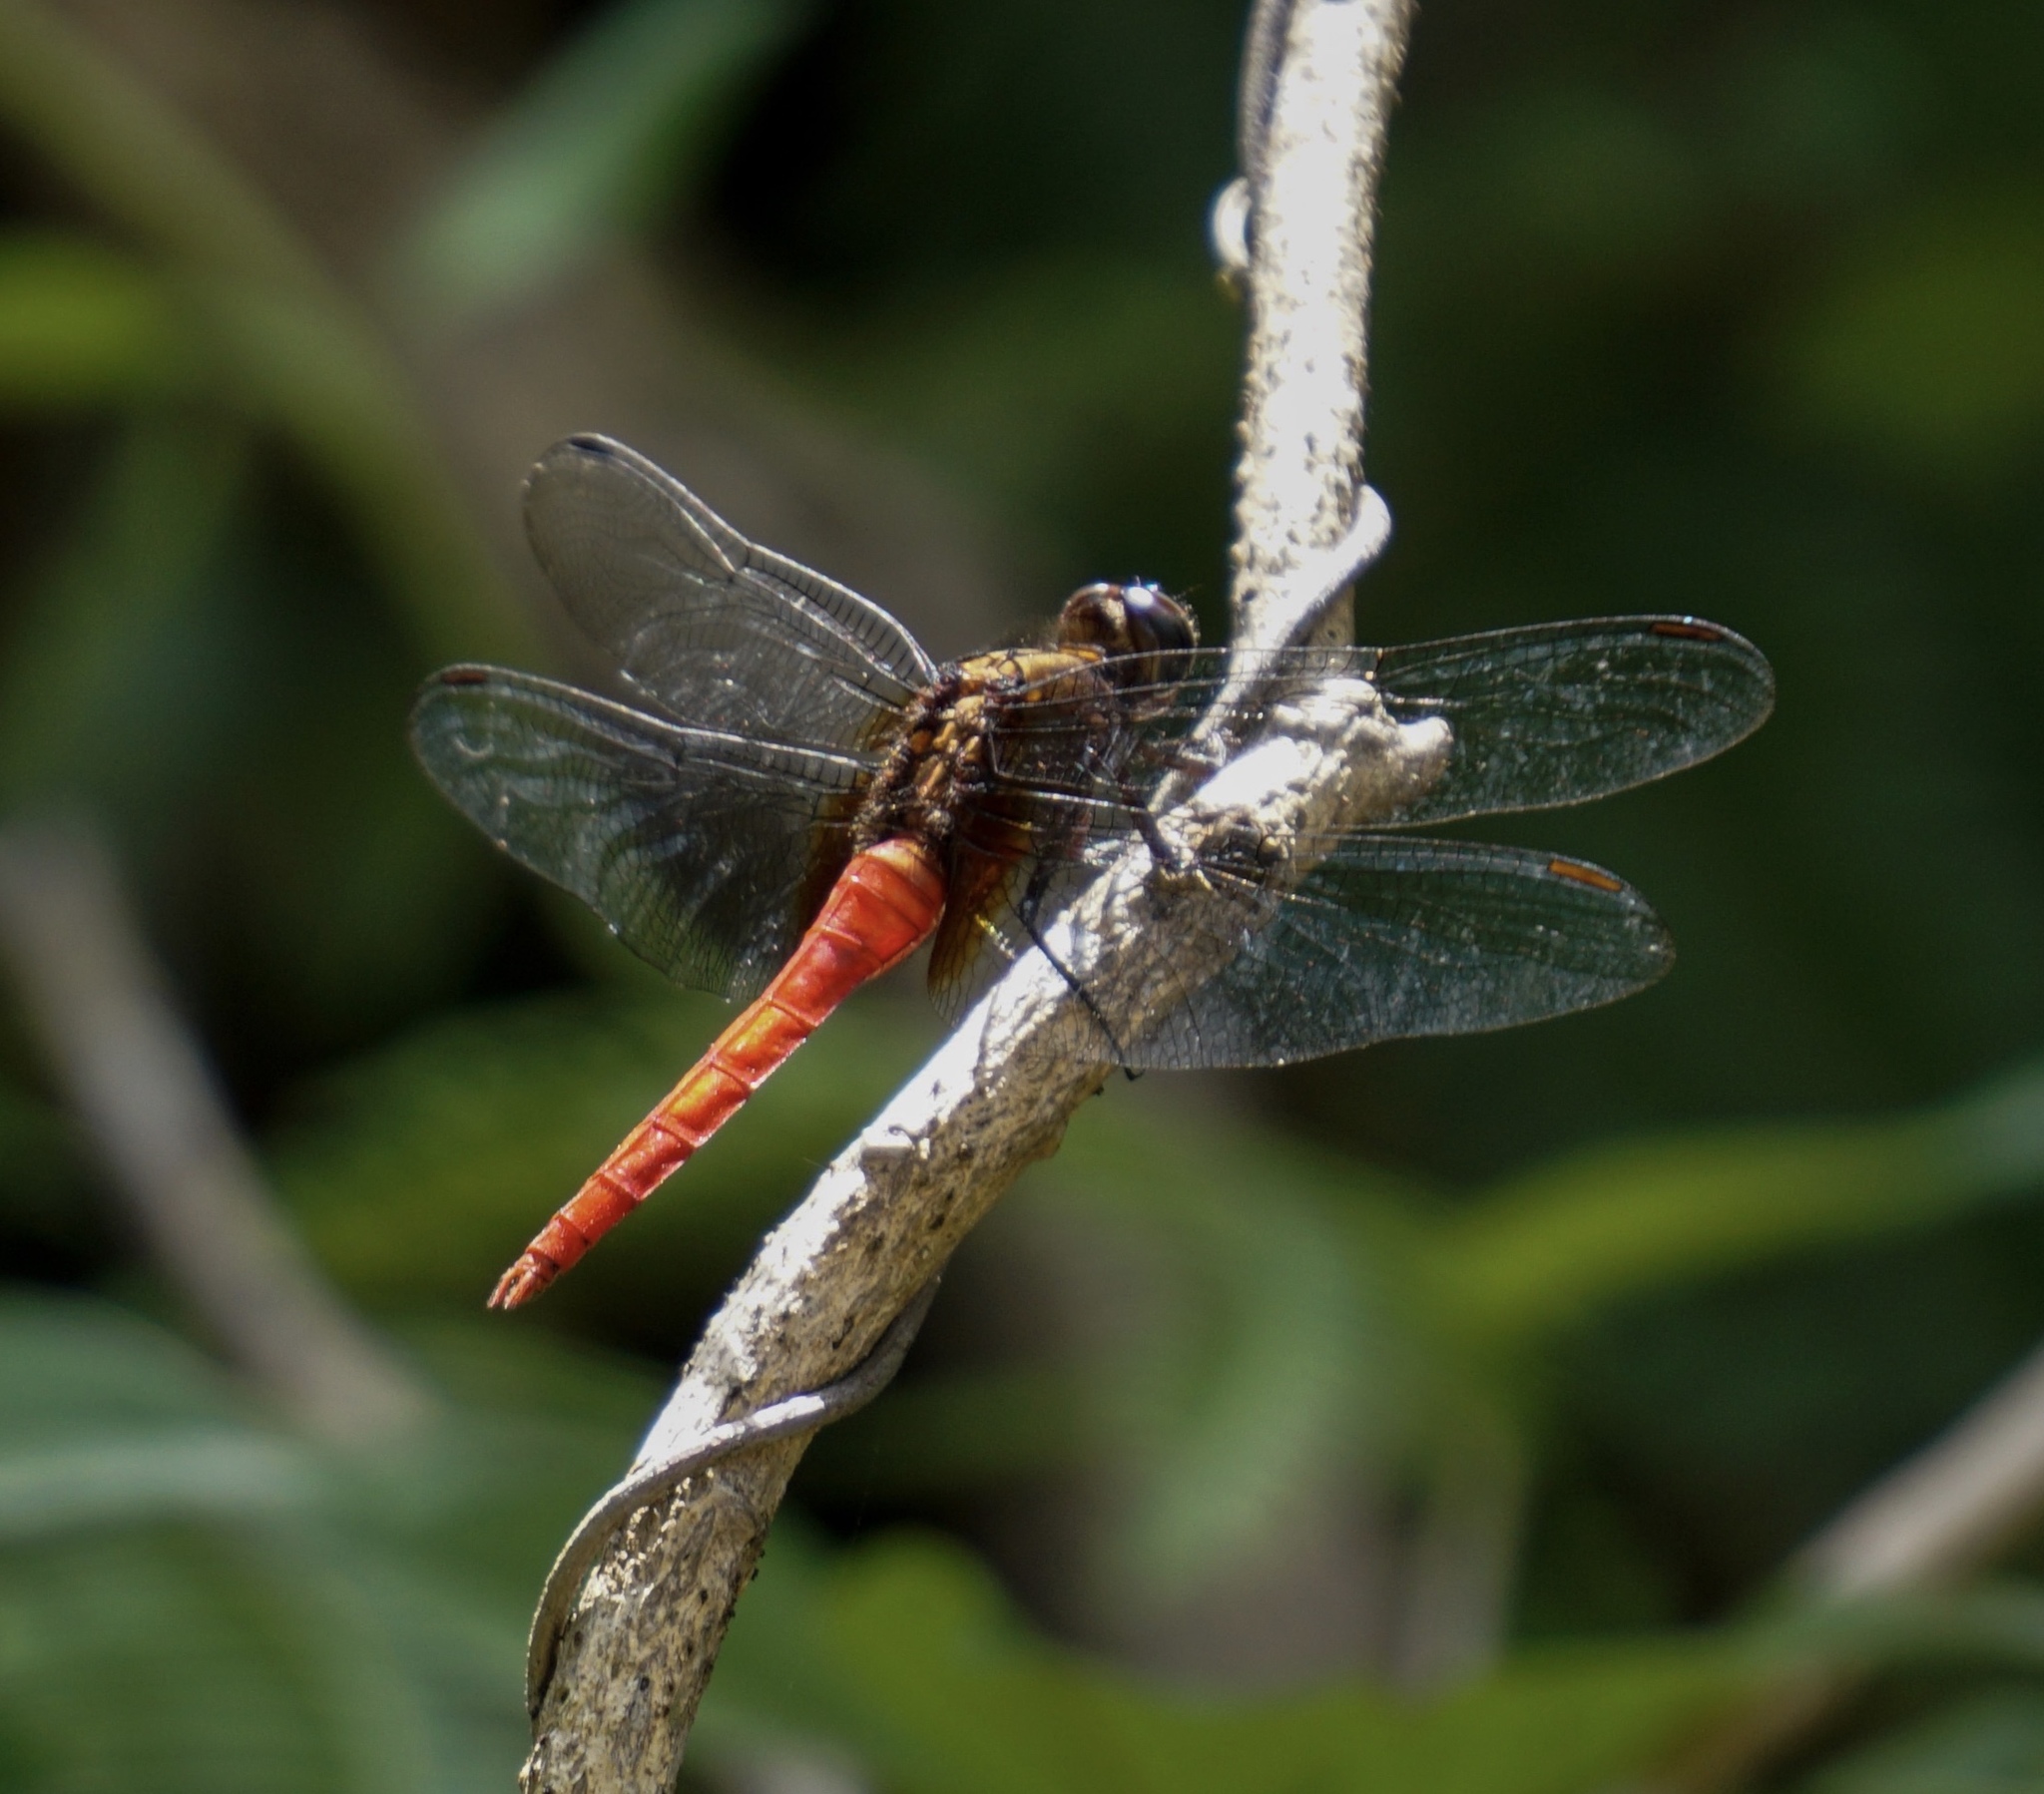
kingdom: Animalia
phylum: Arthropoda
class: Insecta
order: Odonata
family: Libellulidae
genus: Orthetrum
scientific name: Orthetrum chrysis
